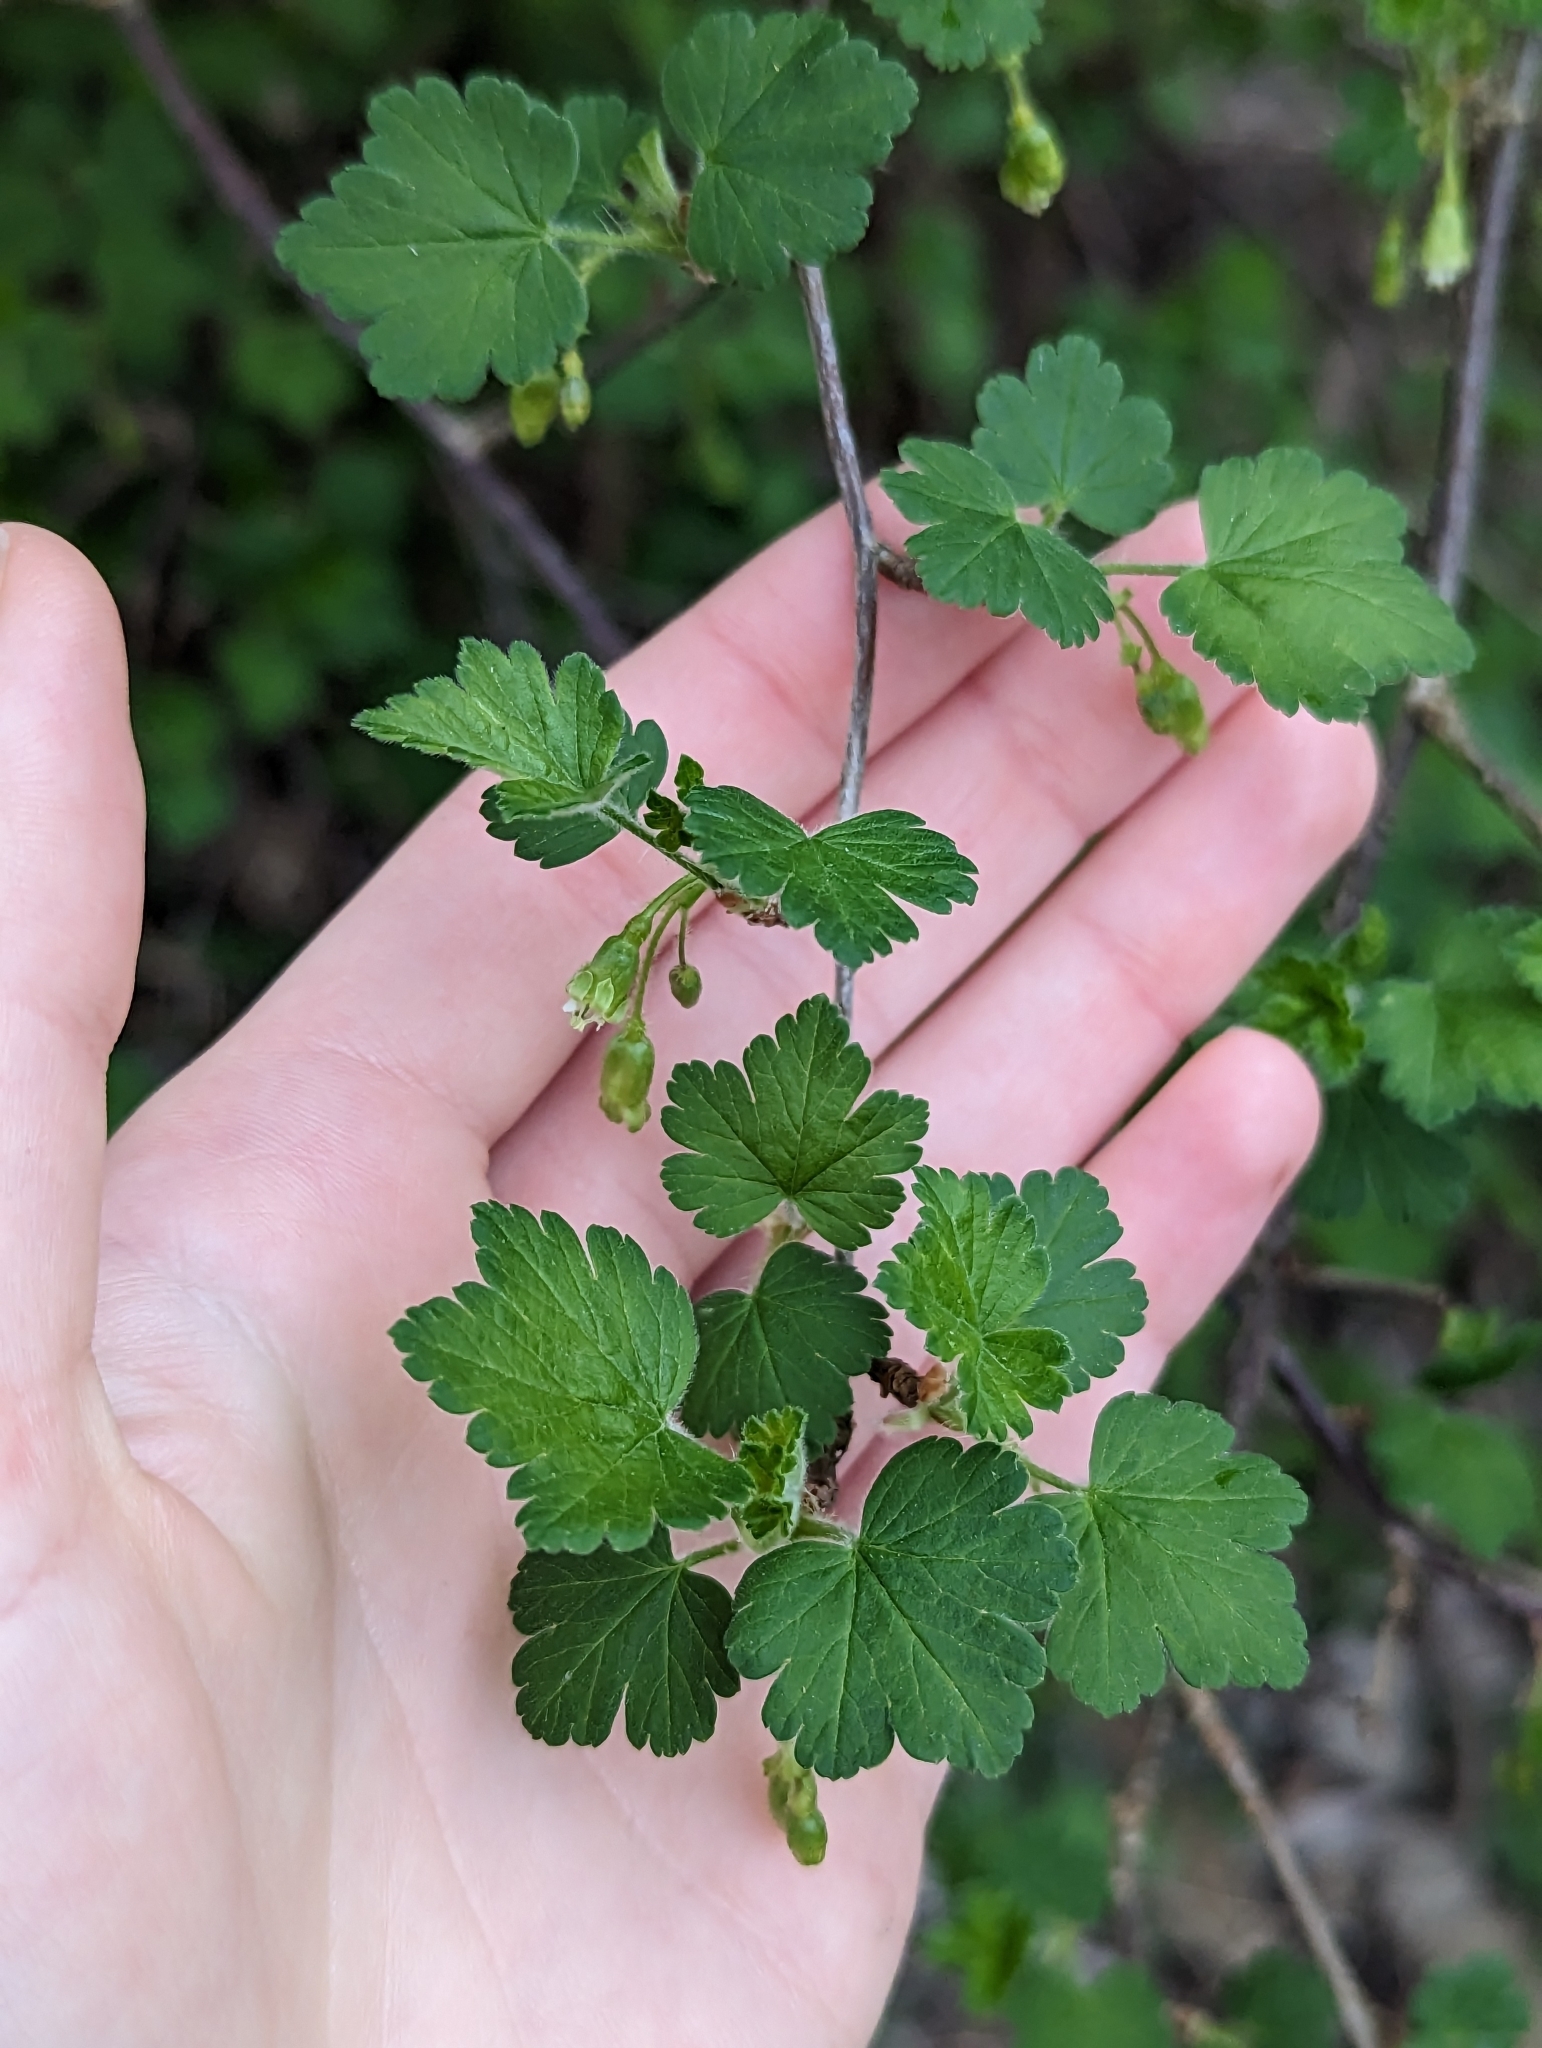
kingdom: Plantae
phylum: Tracheophyta
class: Magnoliopsida
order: Saxifragales
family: Grossulariaceae
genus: Ribes
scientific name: Ribes cynosbati
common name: American gooseberry
